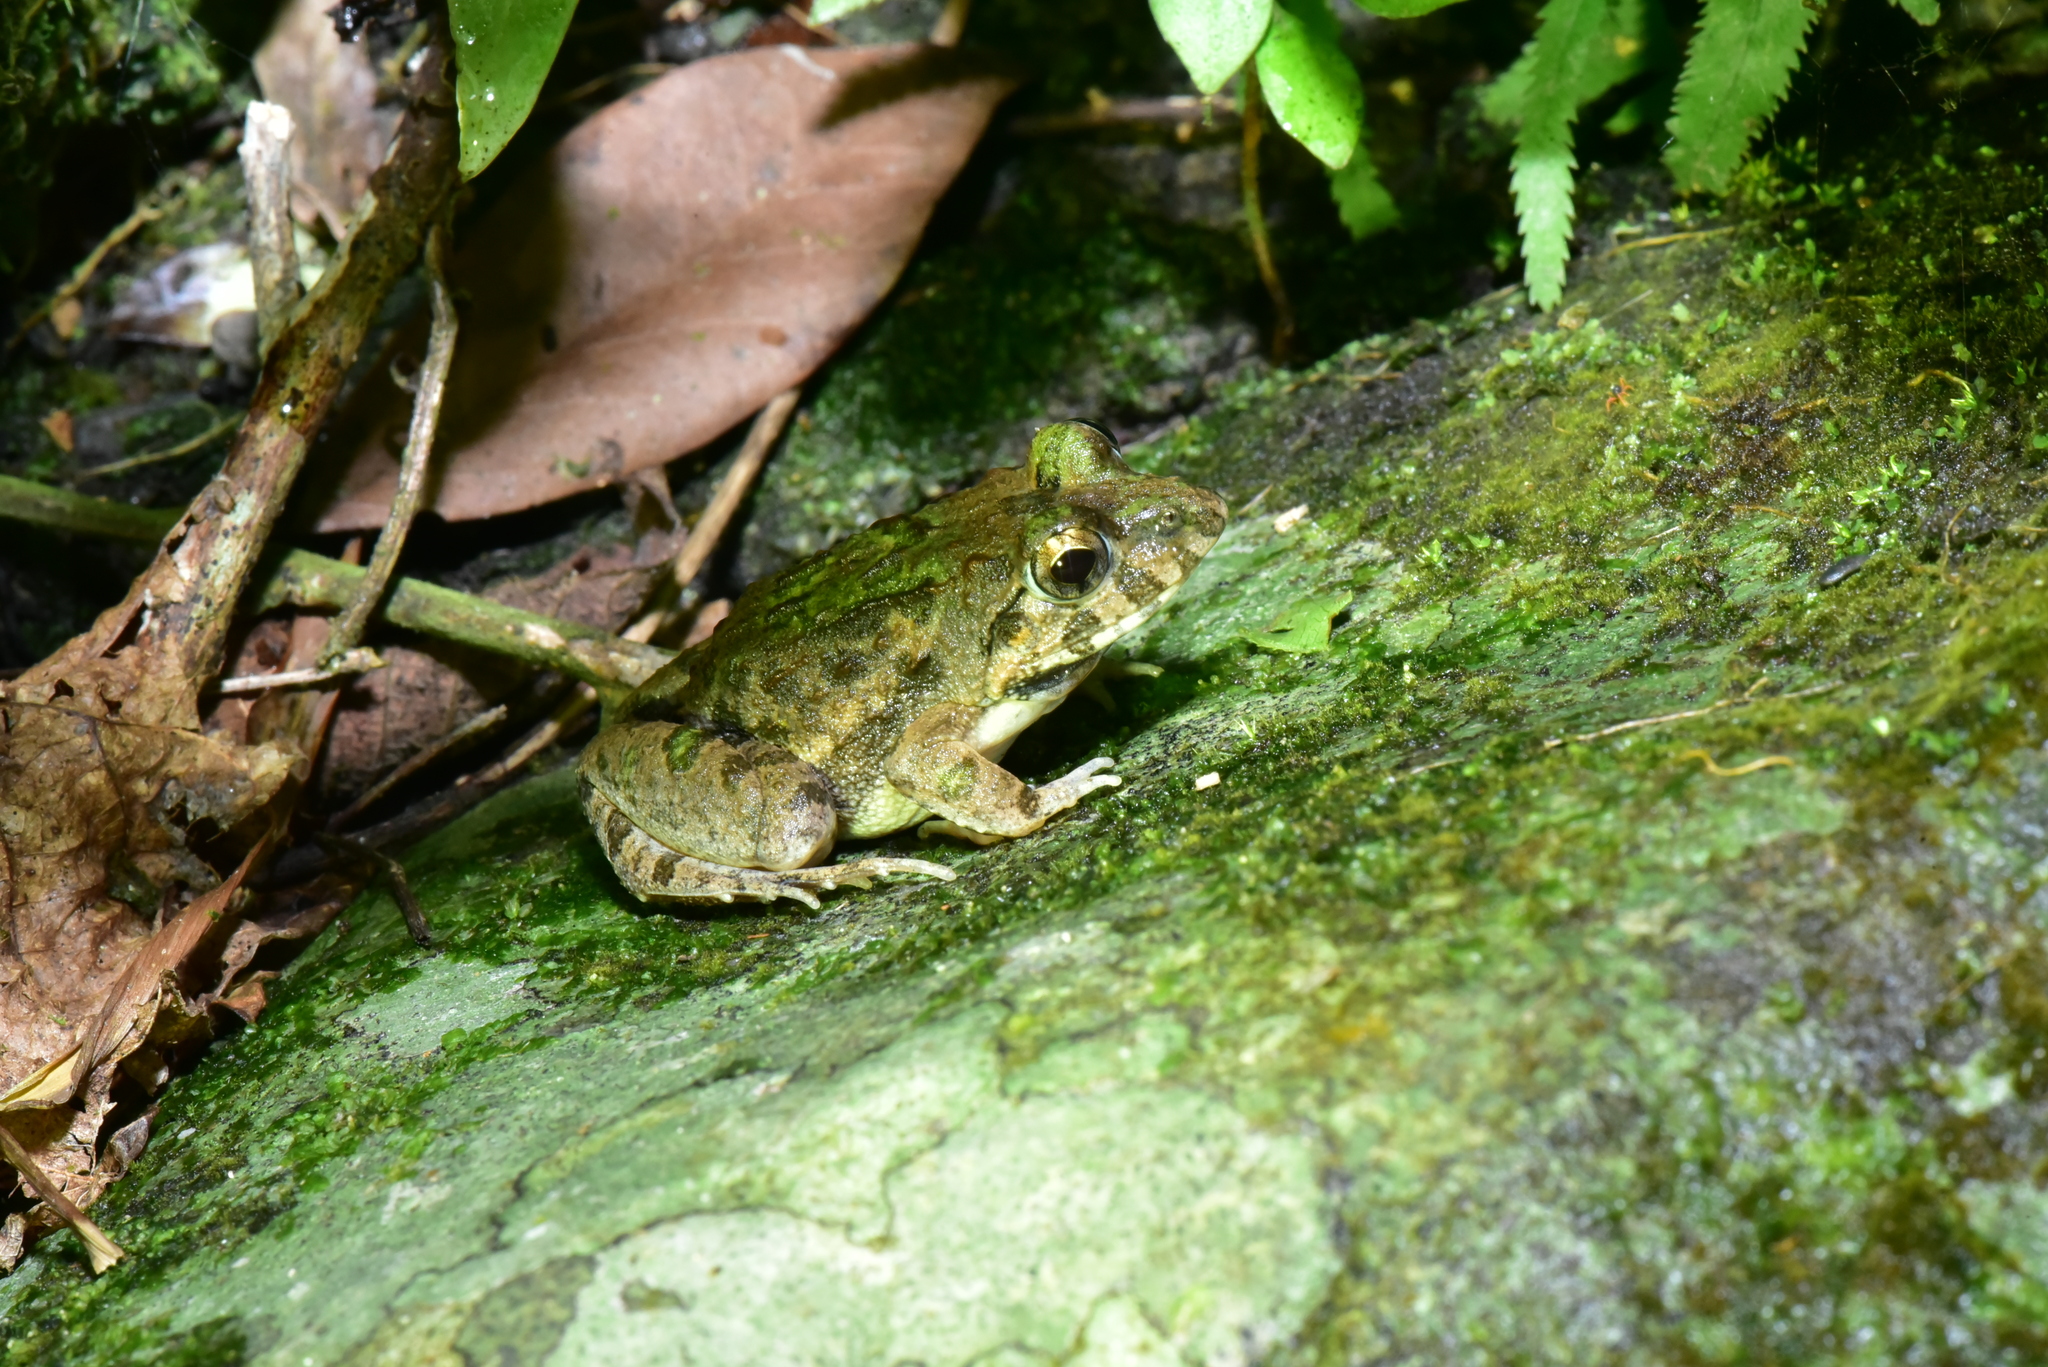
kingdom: Animalia
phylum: Chordata
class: Amphibia
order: Anura
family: Dicroglossidae
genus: Fejervarya
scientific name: Fejervarya limnocharis
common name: Asian grass frog/common pond frog/field frog/grass frog/indian rice frog
